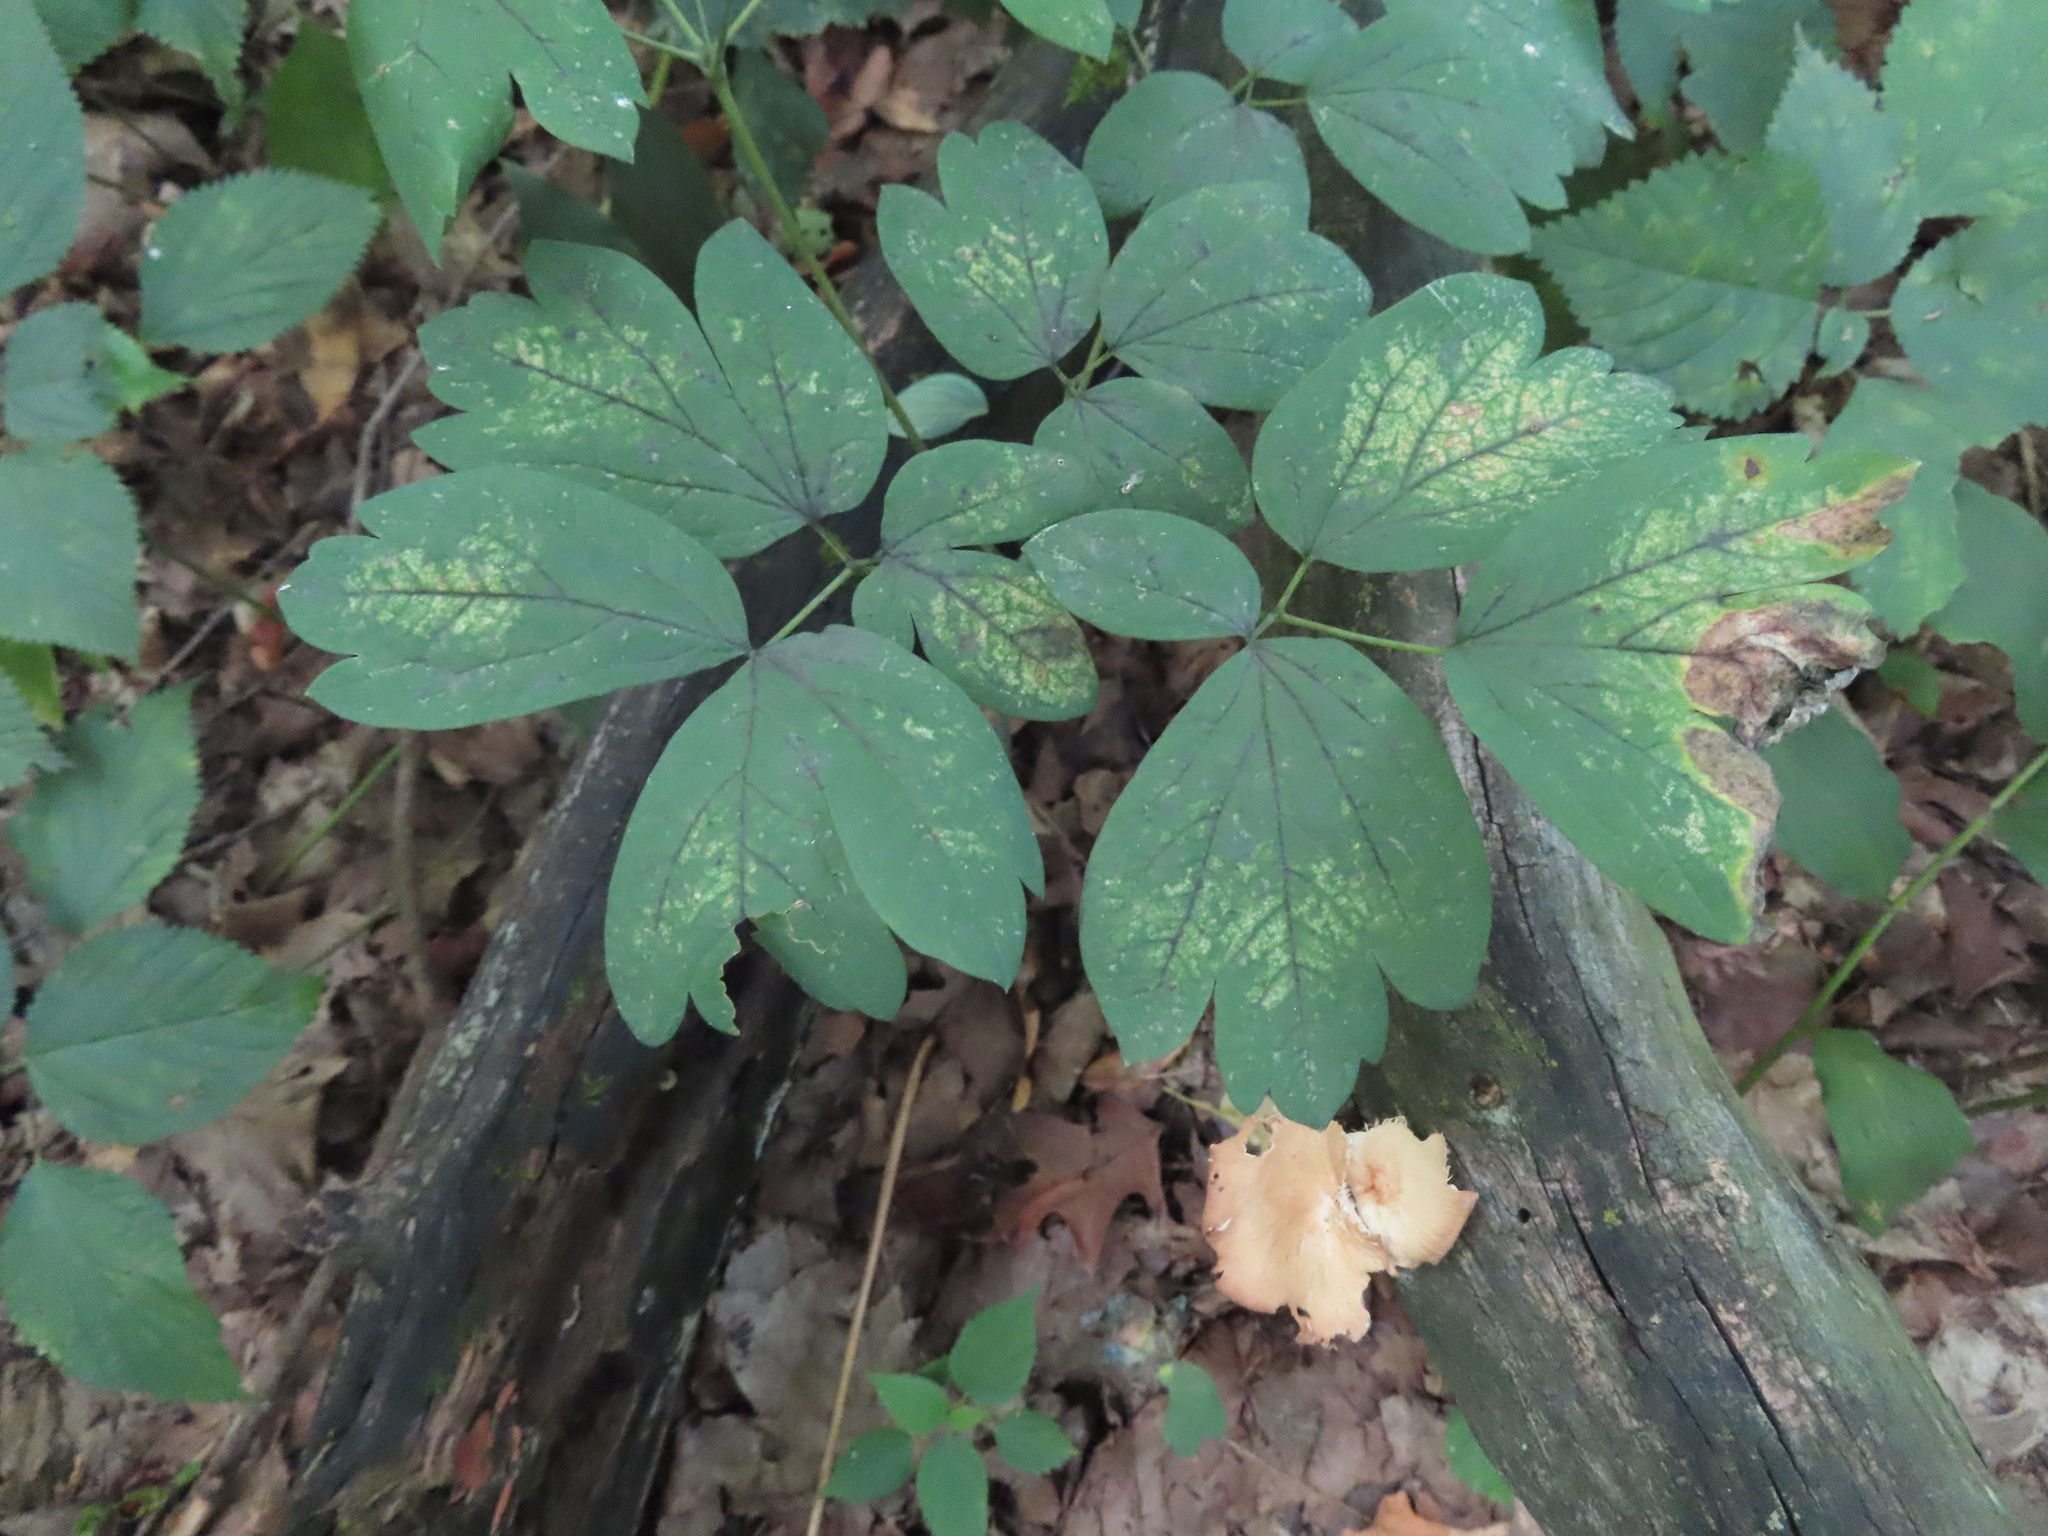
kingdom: Plantae
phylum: Tracheophyta
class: Magnoliopsida
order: Ranunculales
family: Berberidaceae
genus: Caulophyllum
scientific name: Caulophyllum thalictroides
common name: Blue cohosh
